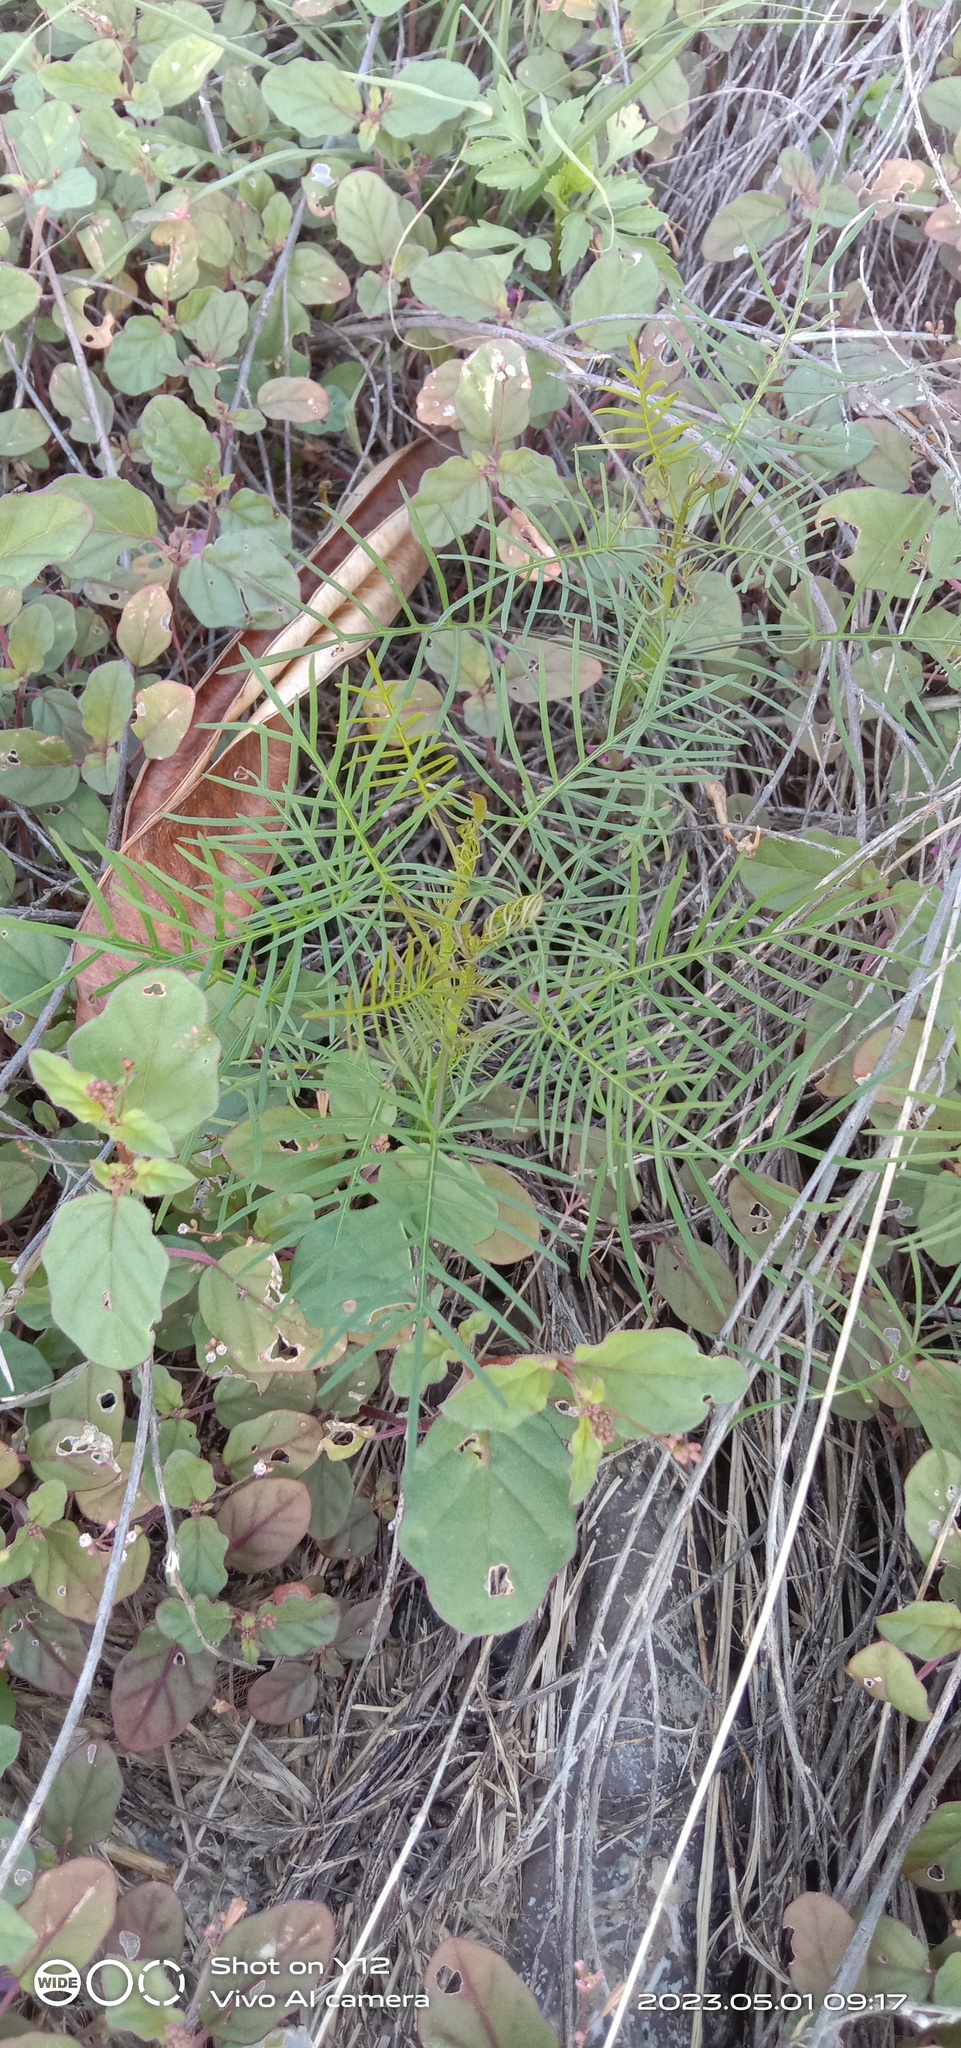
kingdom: Plantae
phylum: Tracheophyta
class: Magnoliopsida
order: Solanales
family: Convolvulaceae
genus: Ipomoea
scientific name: Ipomoea quamoclit
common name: Cypress vine
